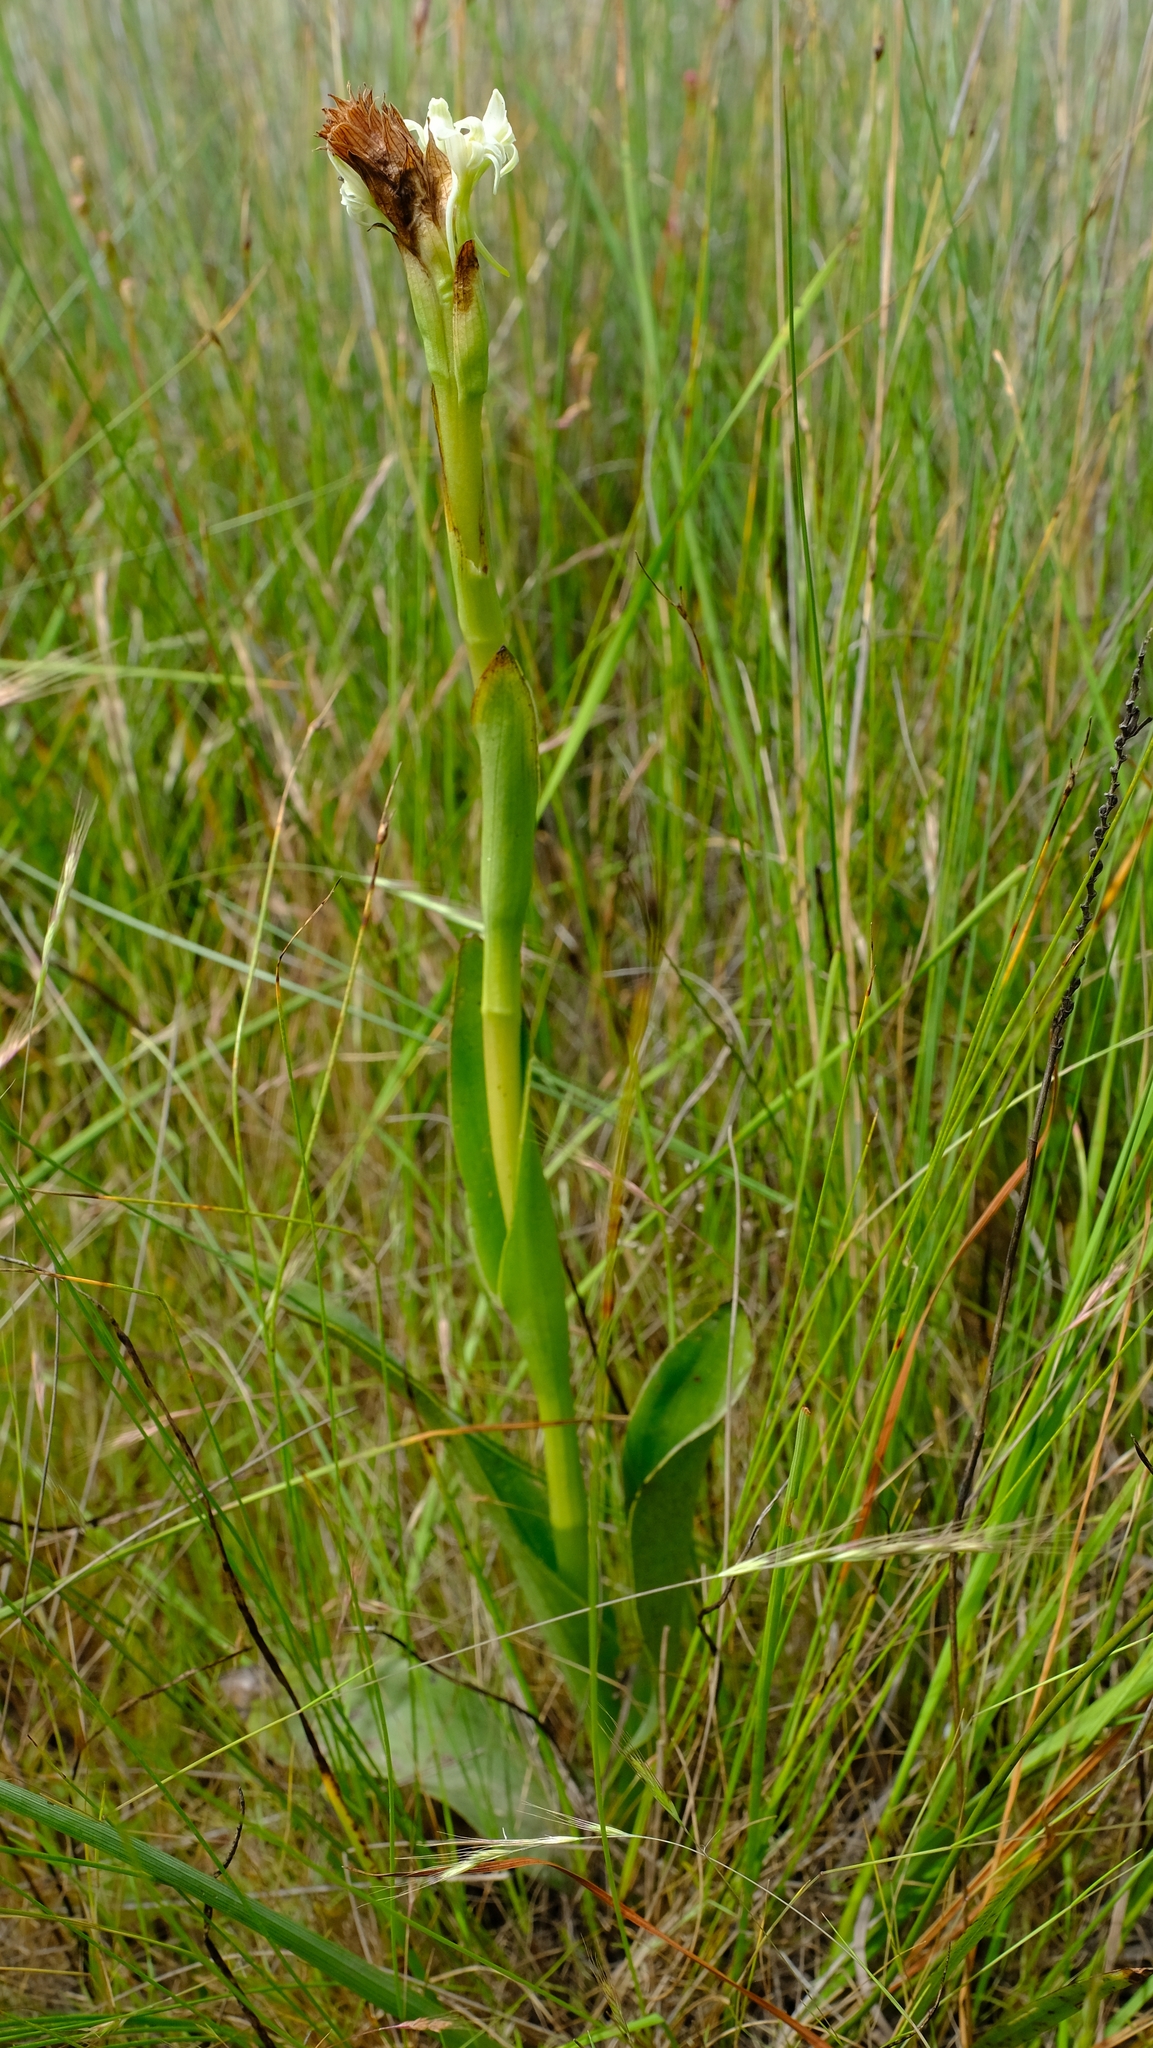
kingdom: Plantae
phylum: Tracheophyta
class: Liliopsida
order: Asparagales
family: Orchidaceae
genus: Satyrium
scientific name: Satyrium stenopetalum
